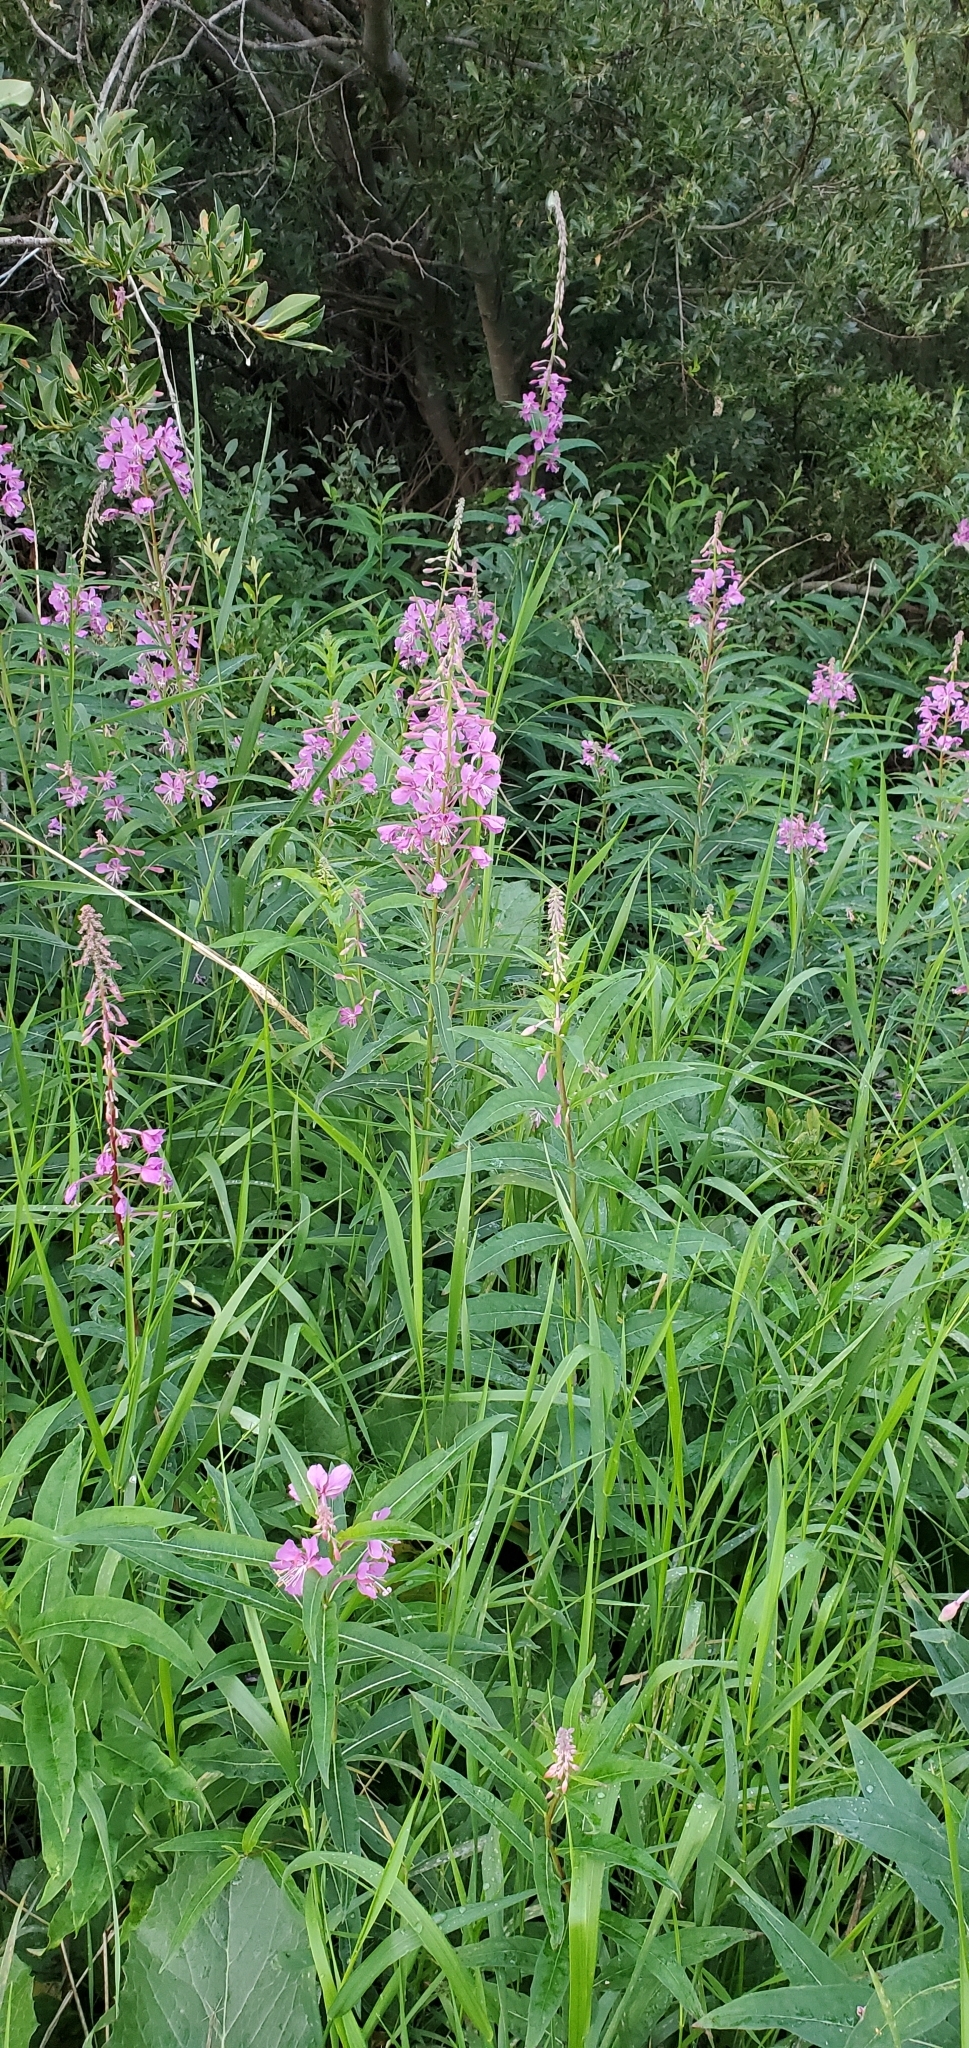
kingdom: Plantae
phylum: Tracheophyta
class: Magnoliopsida
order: Myrtales
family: Onagraceae
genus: Chamaenerion
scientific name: Chamaenerion angustifolium
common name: Fireweed
